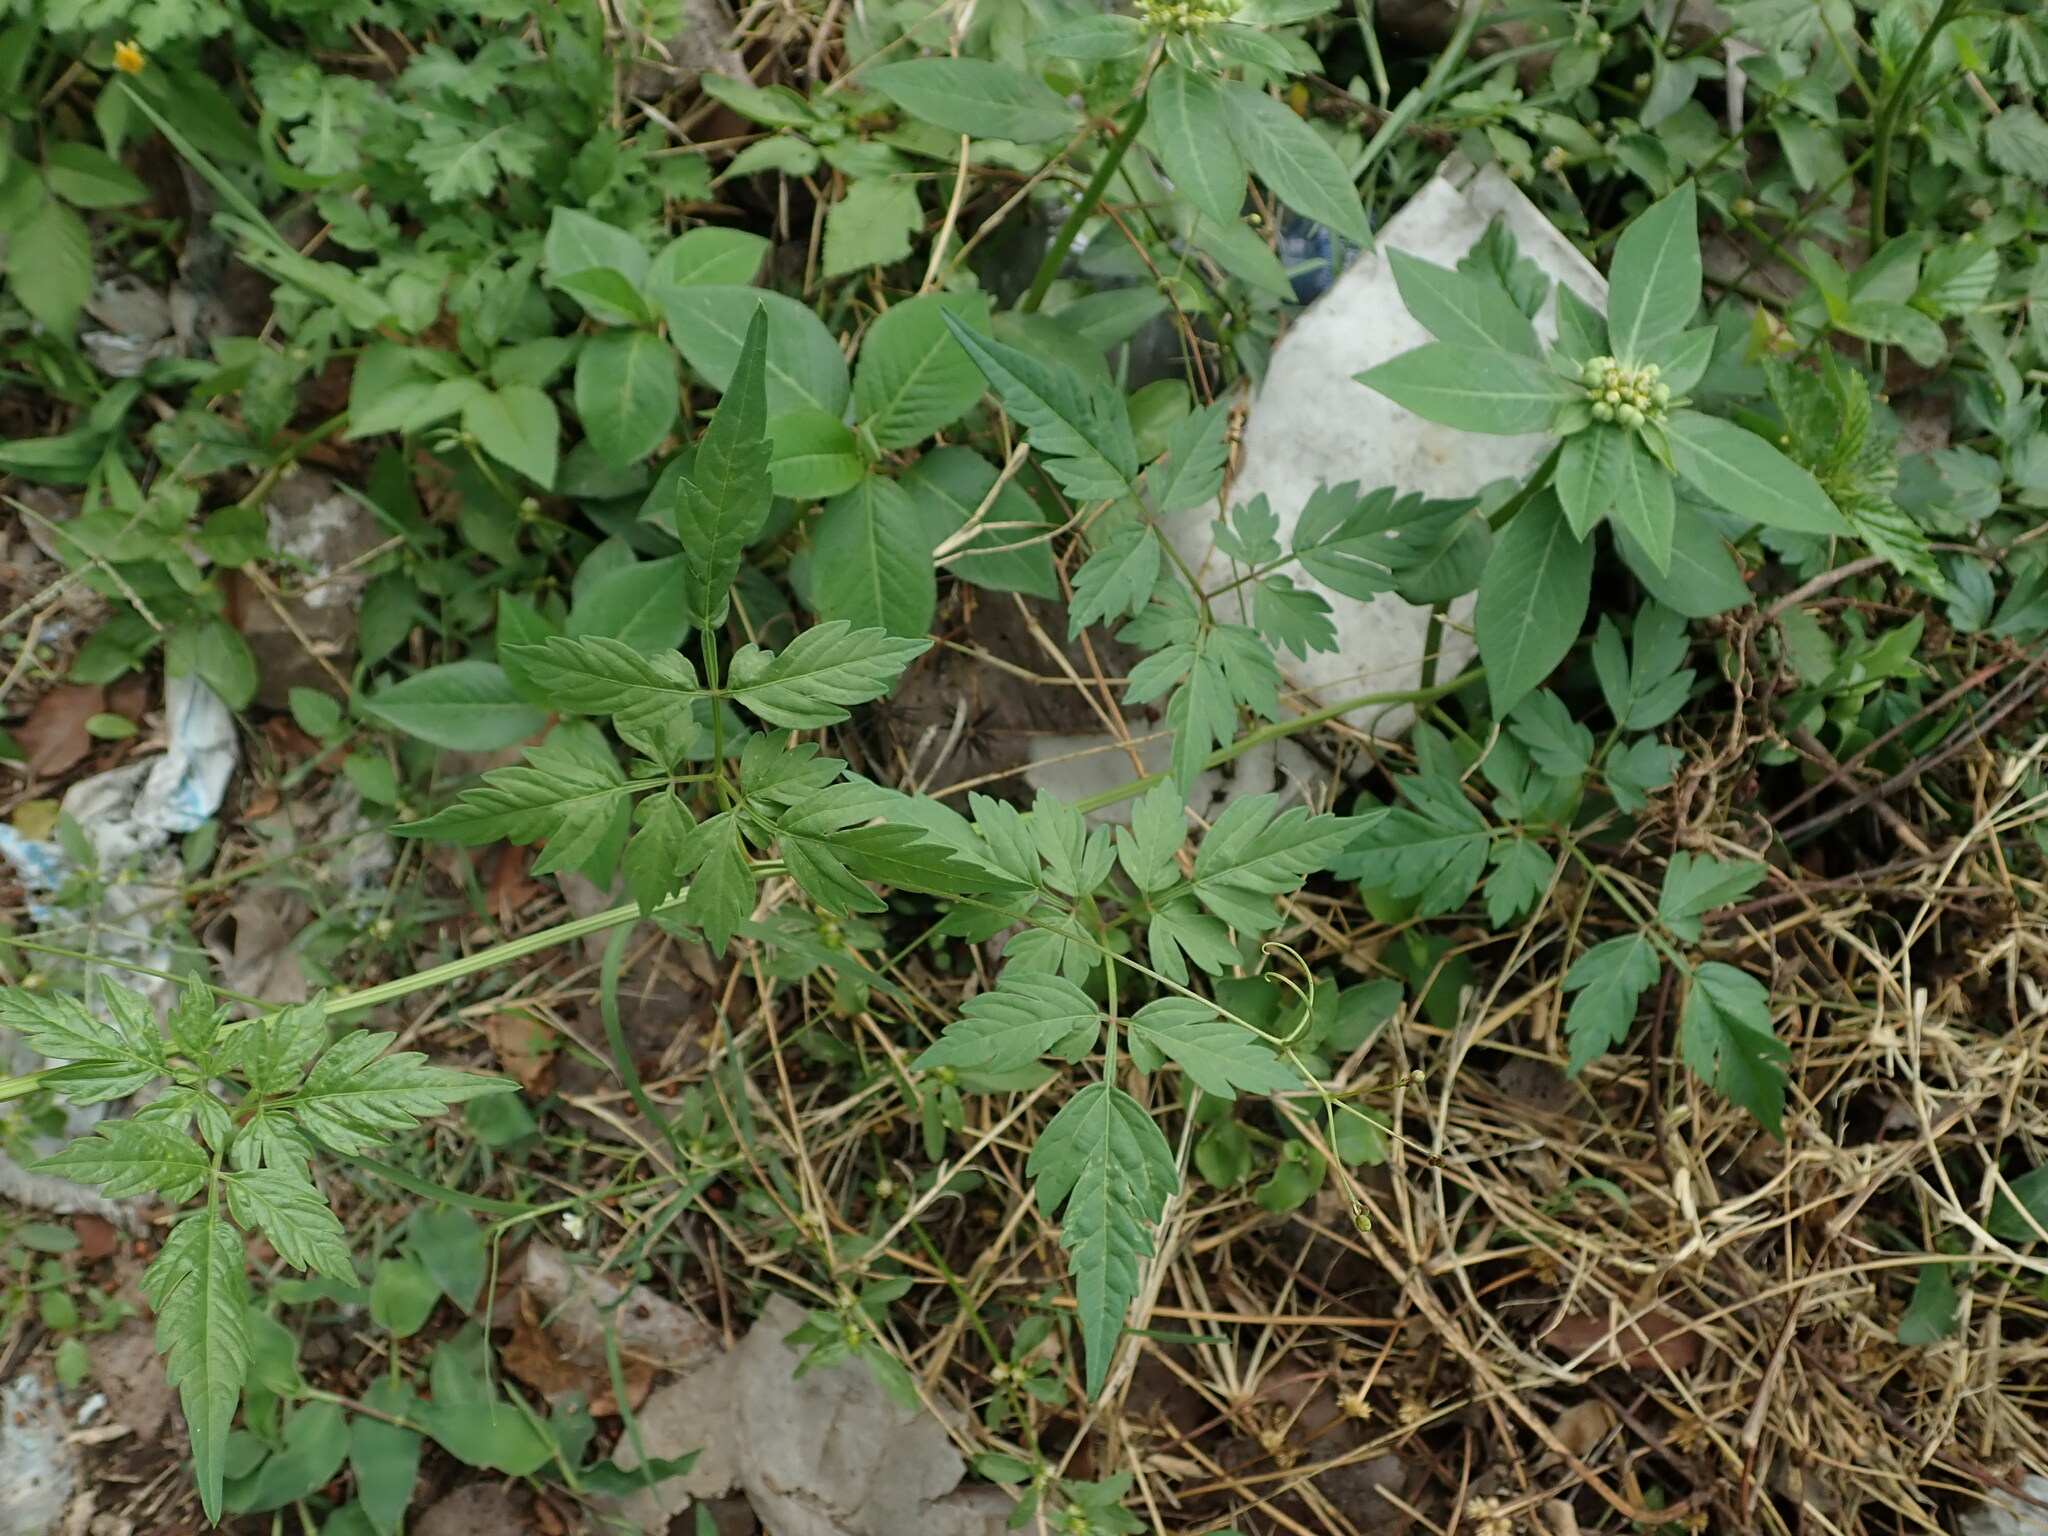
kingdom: Plantae
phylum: Tracheophyta
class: Magnoliopsida
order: Malpighiales
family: Euphorbiaceae
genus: Euphorbia
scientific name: Euphorbia heterophylla
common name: Mexican fireplant
